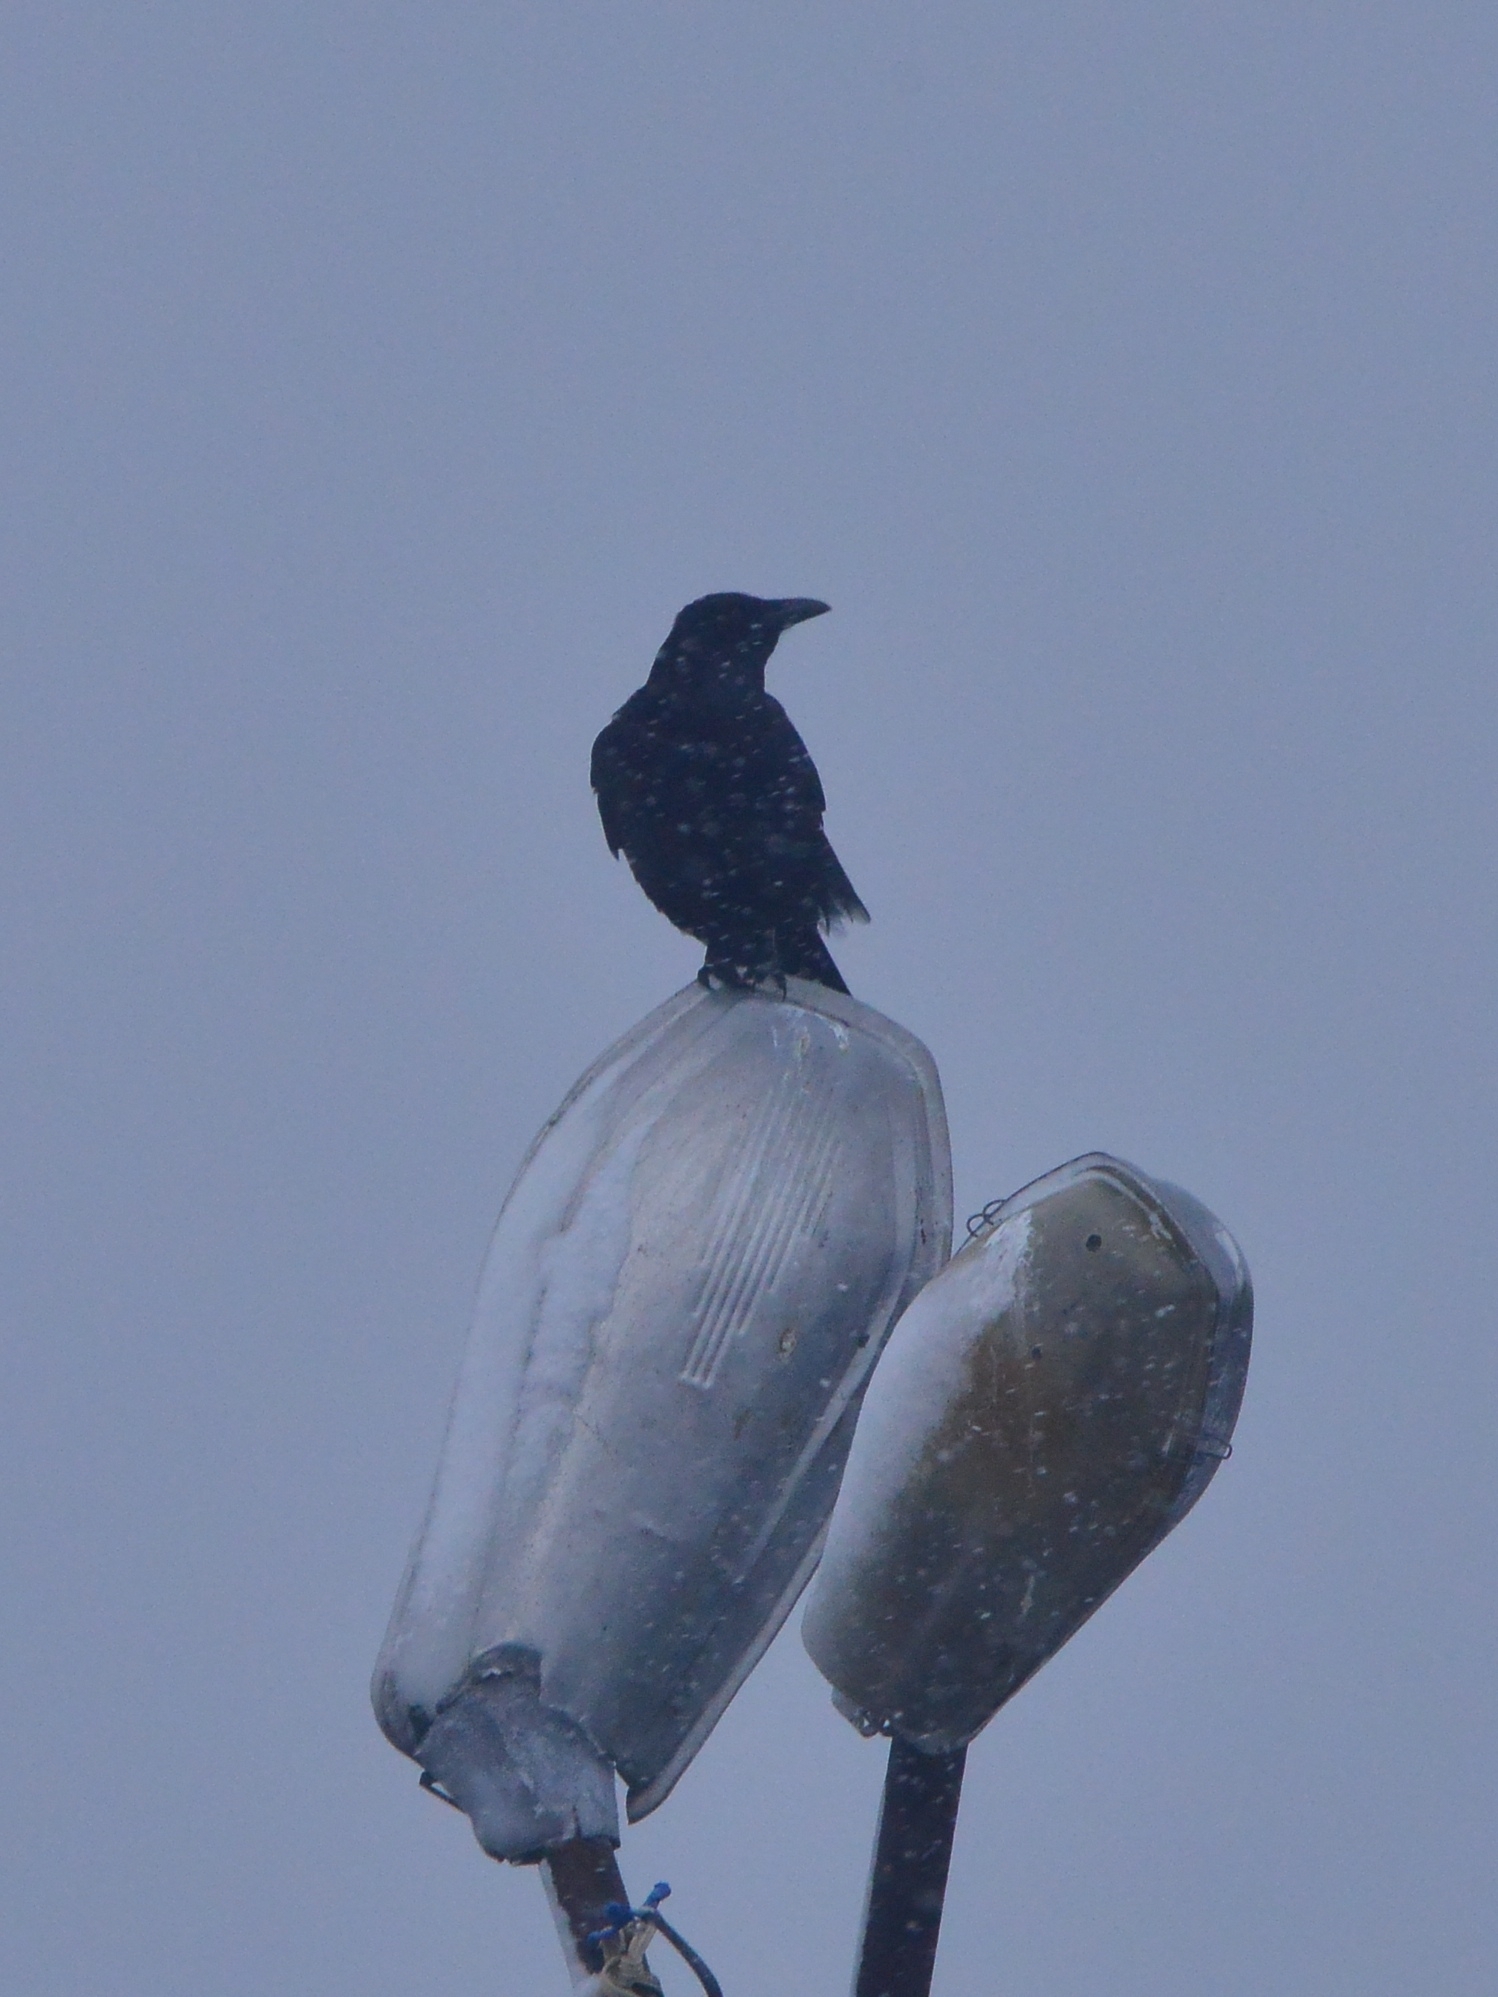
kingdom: Animalia
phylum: Chordata
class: Aves
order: Passeriformes
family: Corvidae
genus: Corvus
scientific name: Corvus corone
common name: Carrion crow
